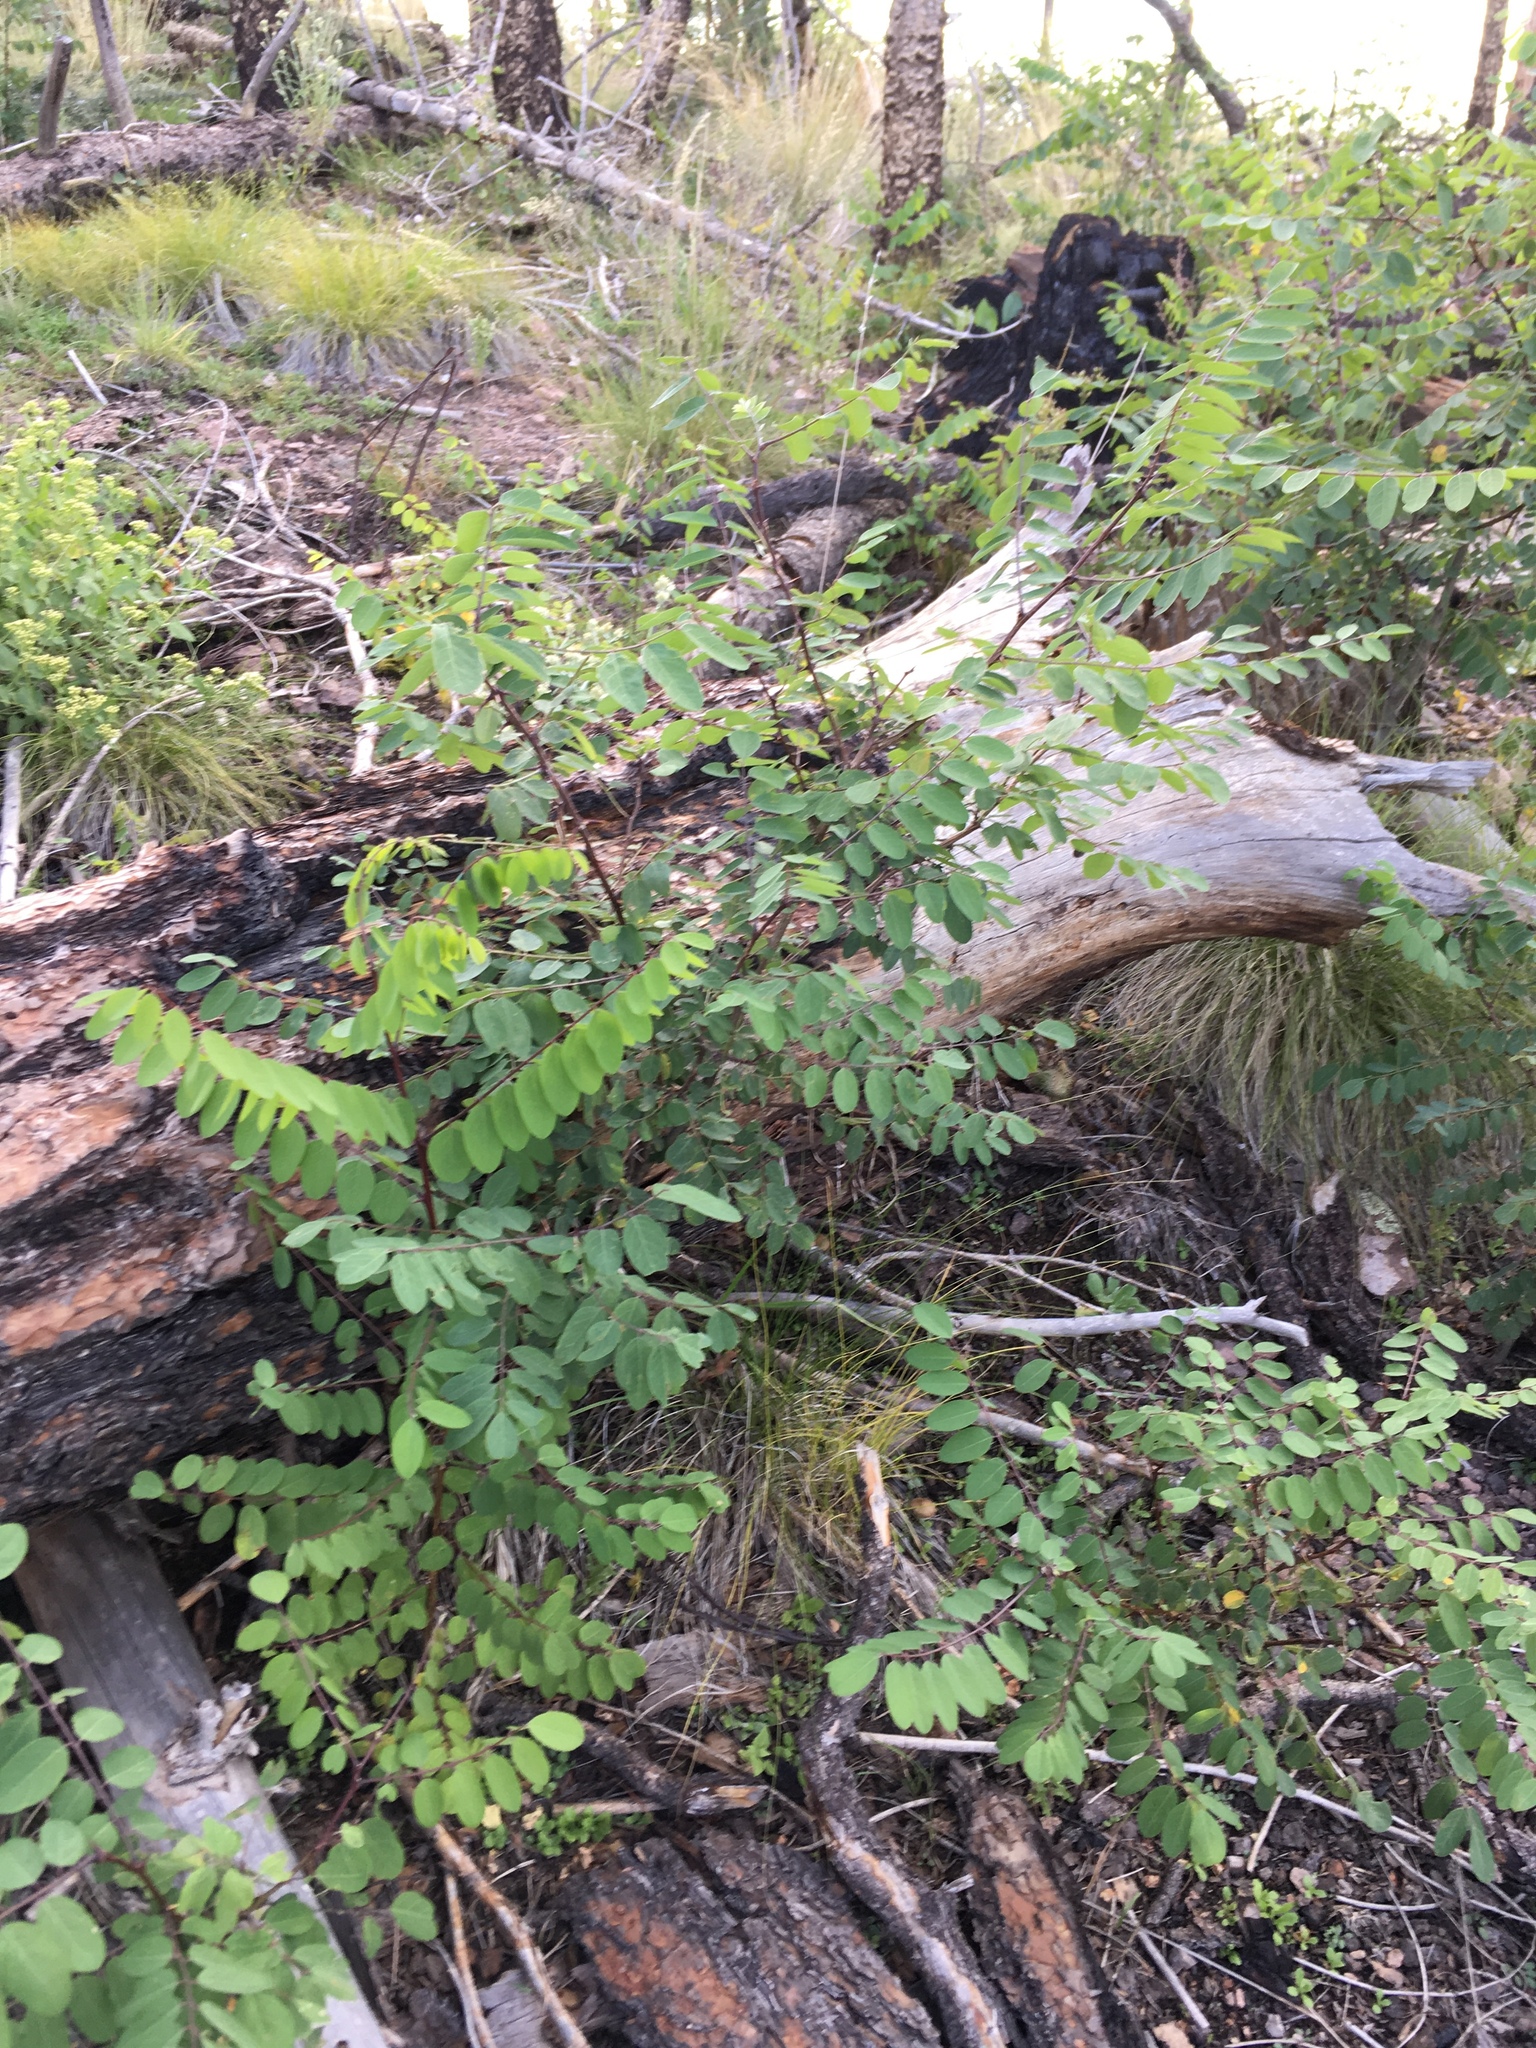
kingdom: Plantae
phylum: Tracheophyta
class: Magnoliopsida
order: Fabales
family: Fabaceae
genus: Robinia
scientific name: Robinia neomexicana
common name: New mexico locust
